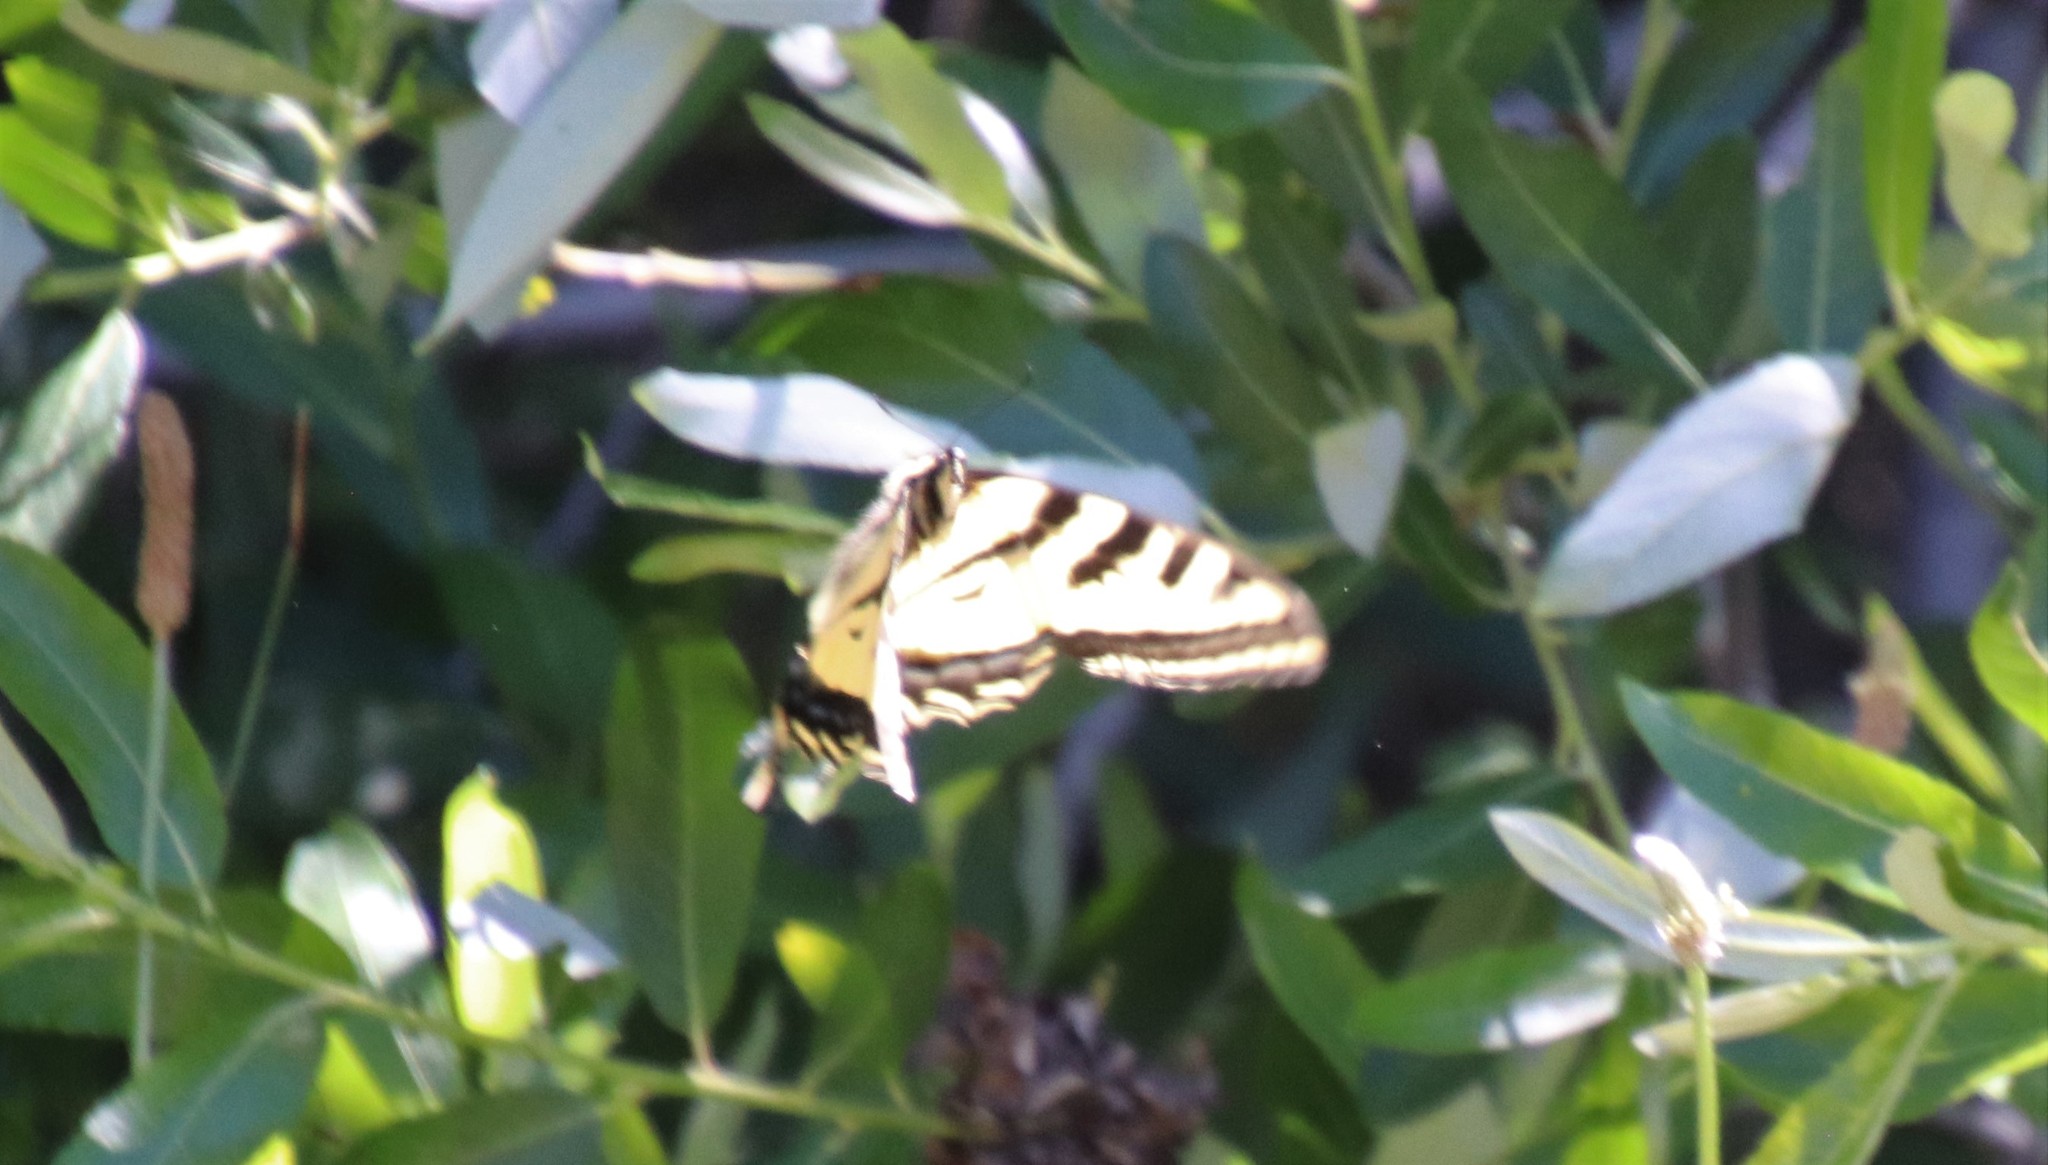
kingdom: Animalia
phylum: Arthropoda
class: Insecta
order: Lepidoptera
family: Papilionidae
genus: Papilio
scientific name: Papilio rutulus
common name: Western tiger swallowtail
